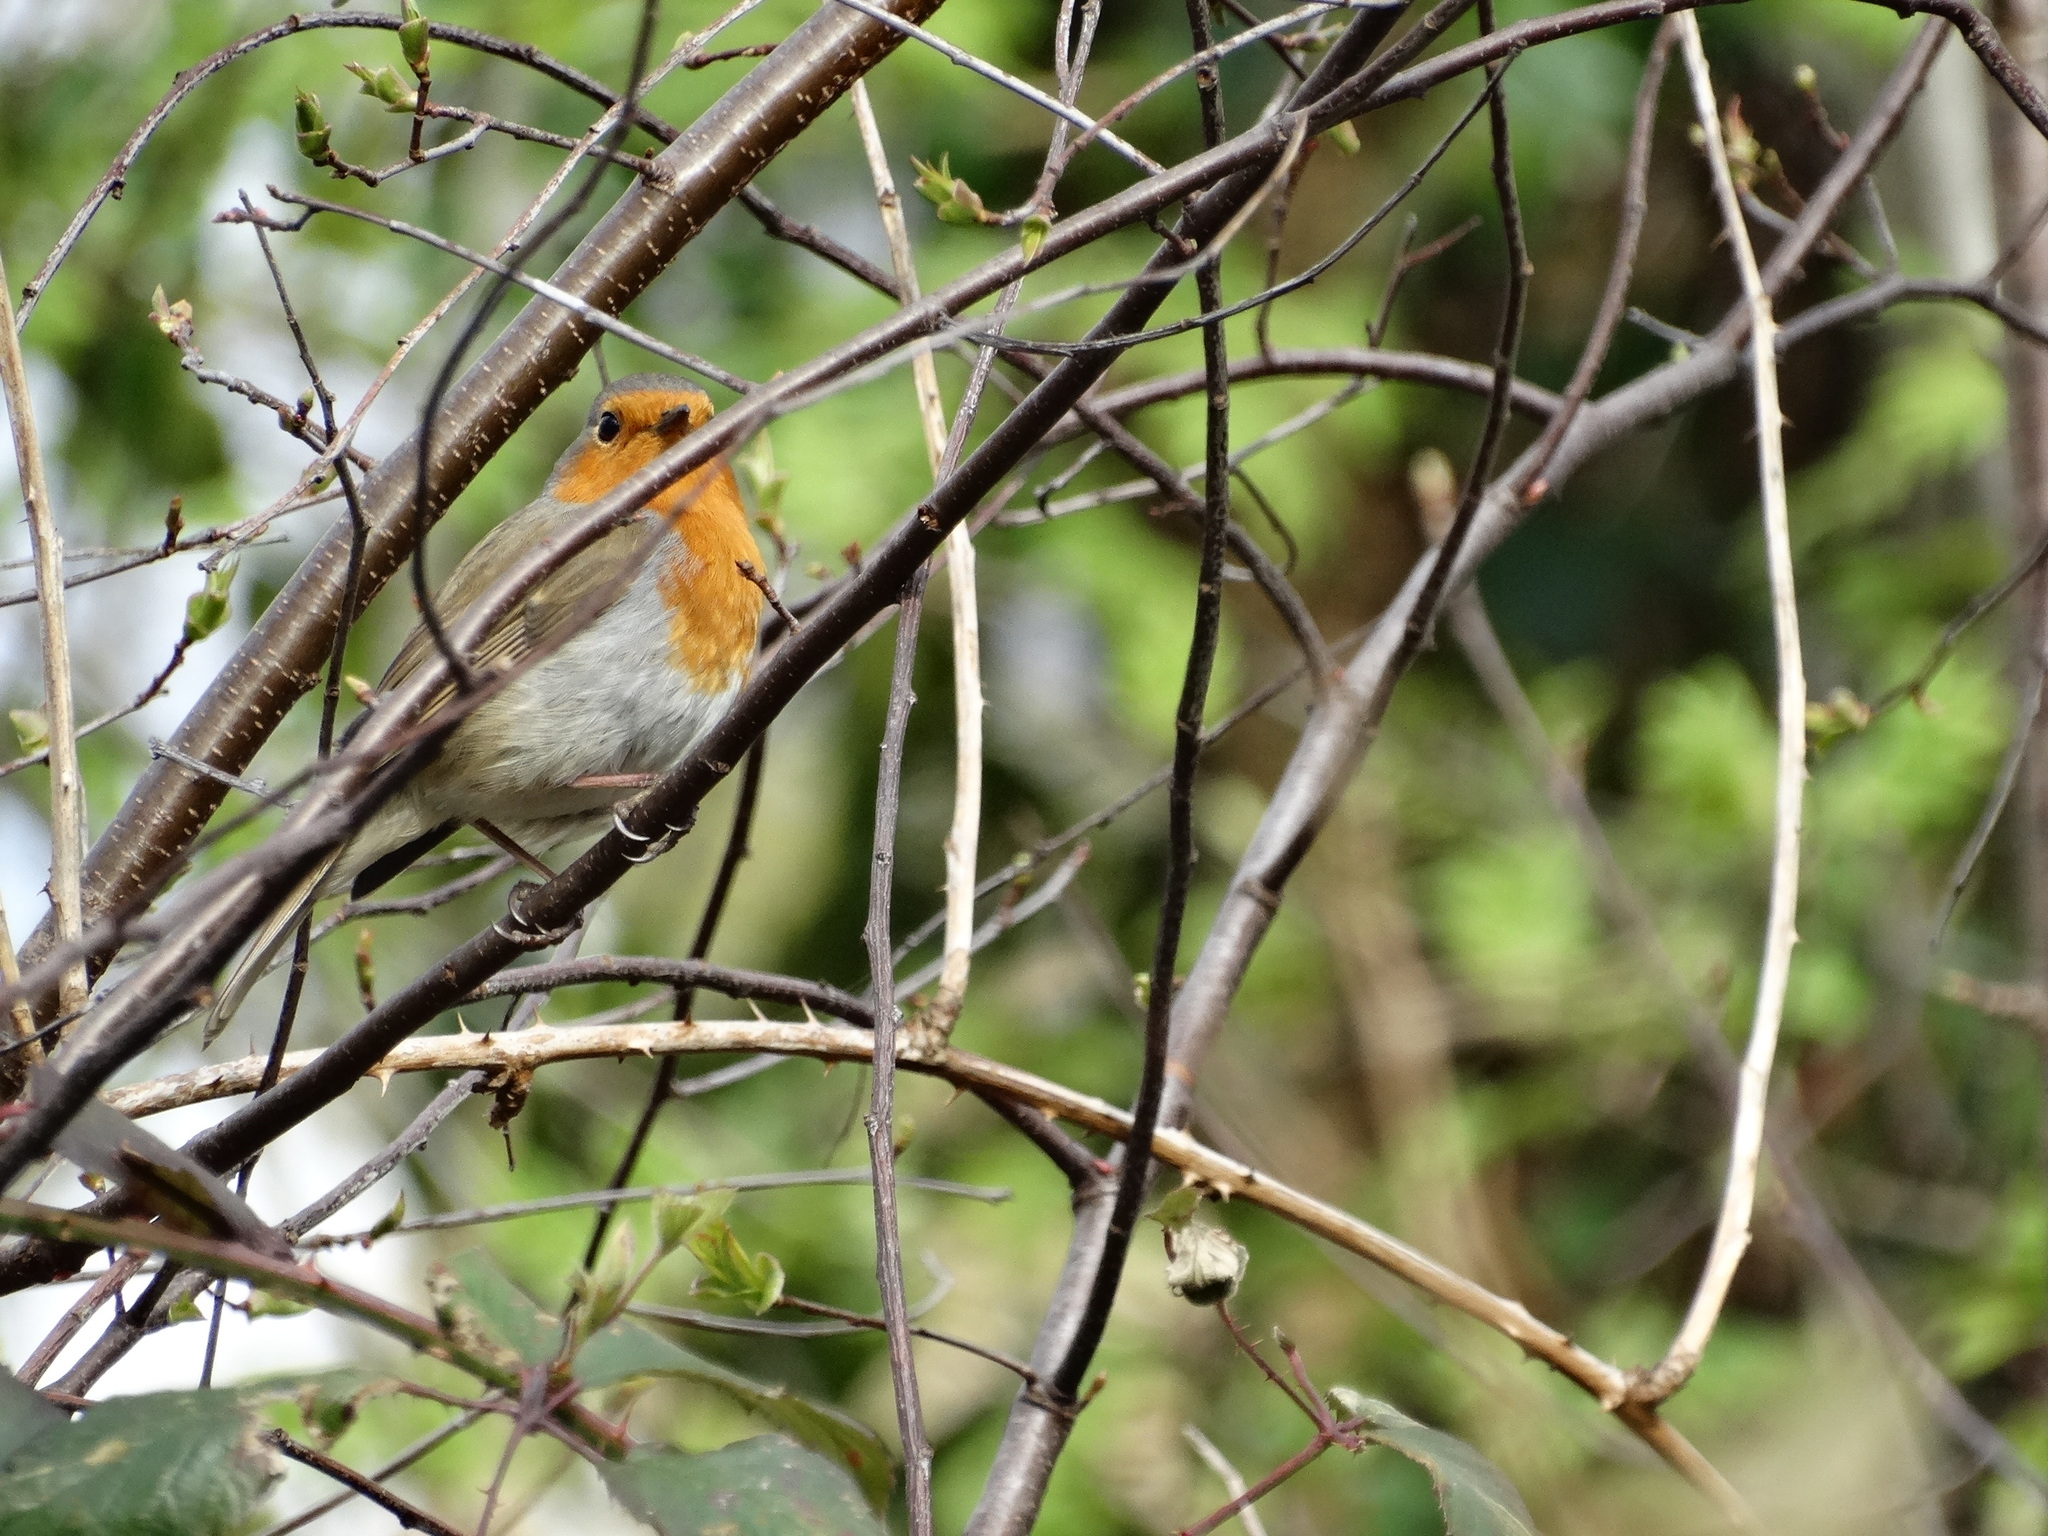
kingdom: Animalia
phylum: Chordata
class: Aves
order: Passeriformes
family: Muscicapidae
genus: Erithacus
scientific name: Erithacus rubecula
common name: European robin
